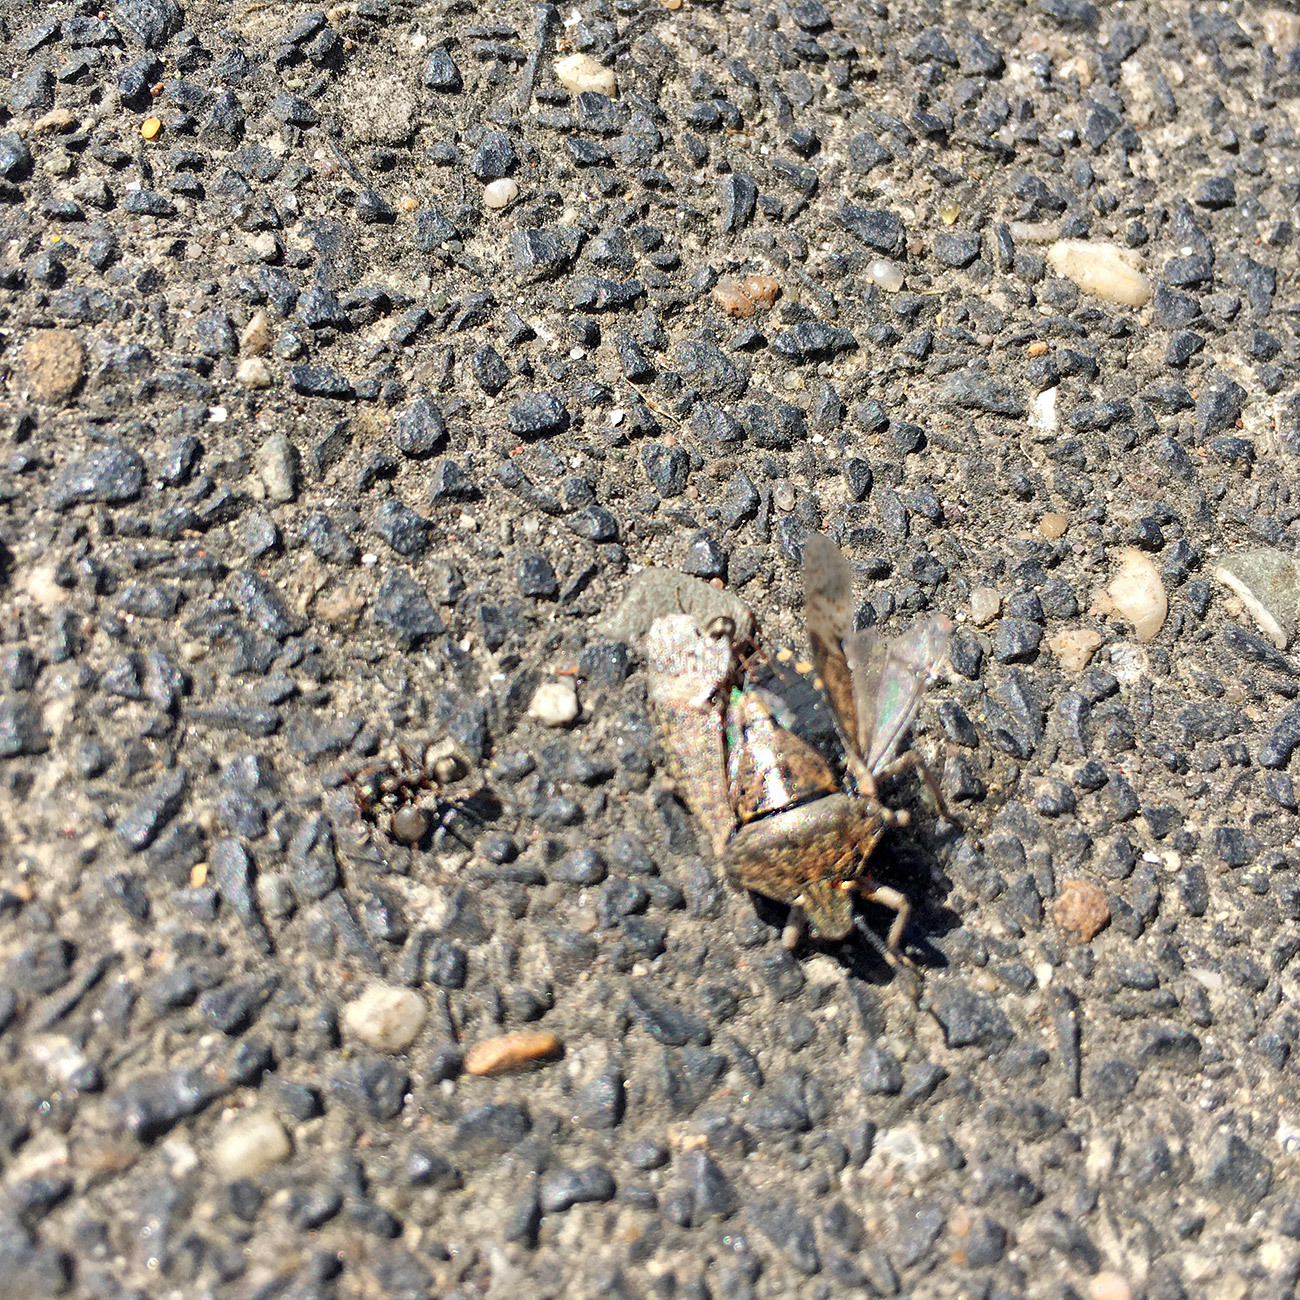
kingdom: Animalia
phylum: Arthropoda
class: Insecta
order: Hemiptera
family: Pentatomidae
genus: Rhaphigaster
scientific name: Rhaphigaster nebulosa
